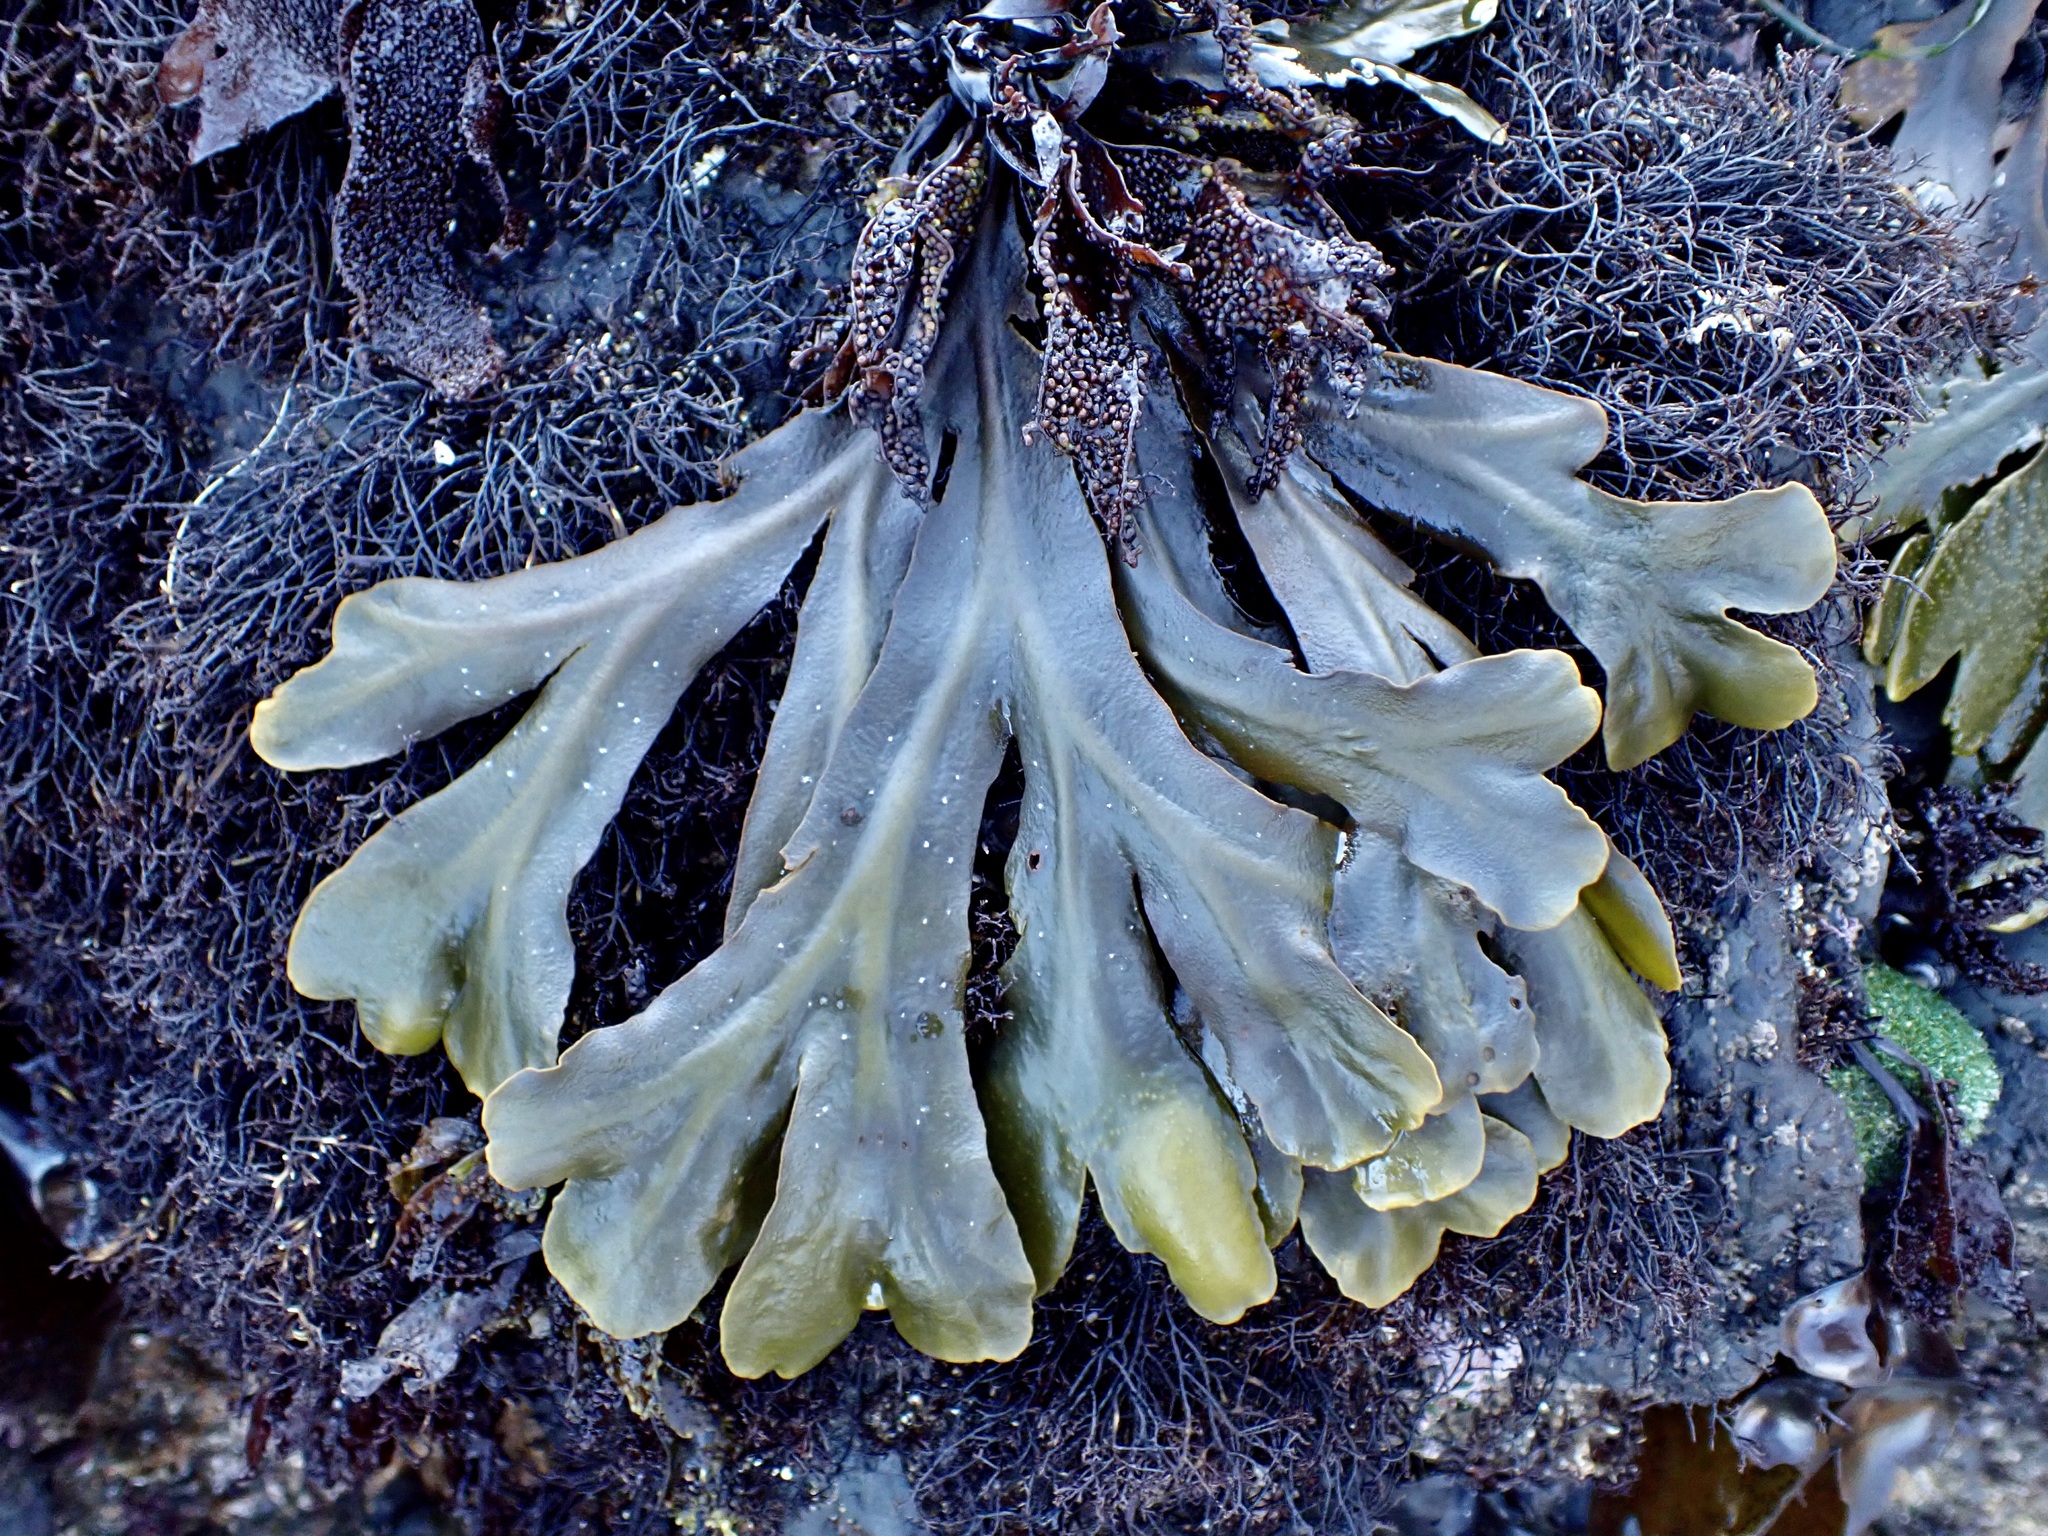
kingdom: Chromista
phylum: Ochrophyta
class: Phaeophyceae
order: Fucales
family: Fucaceae
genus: Fucus
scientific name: Fucus distichus
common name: Rockweed
